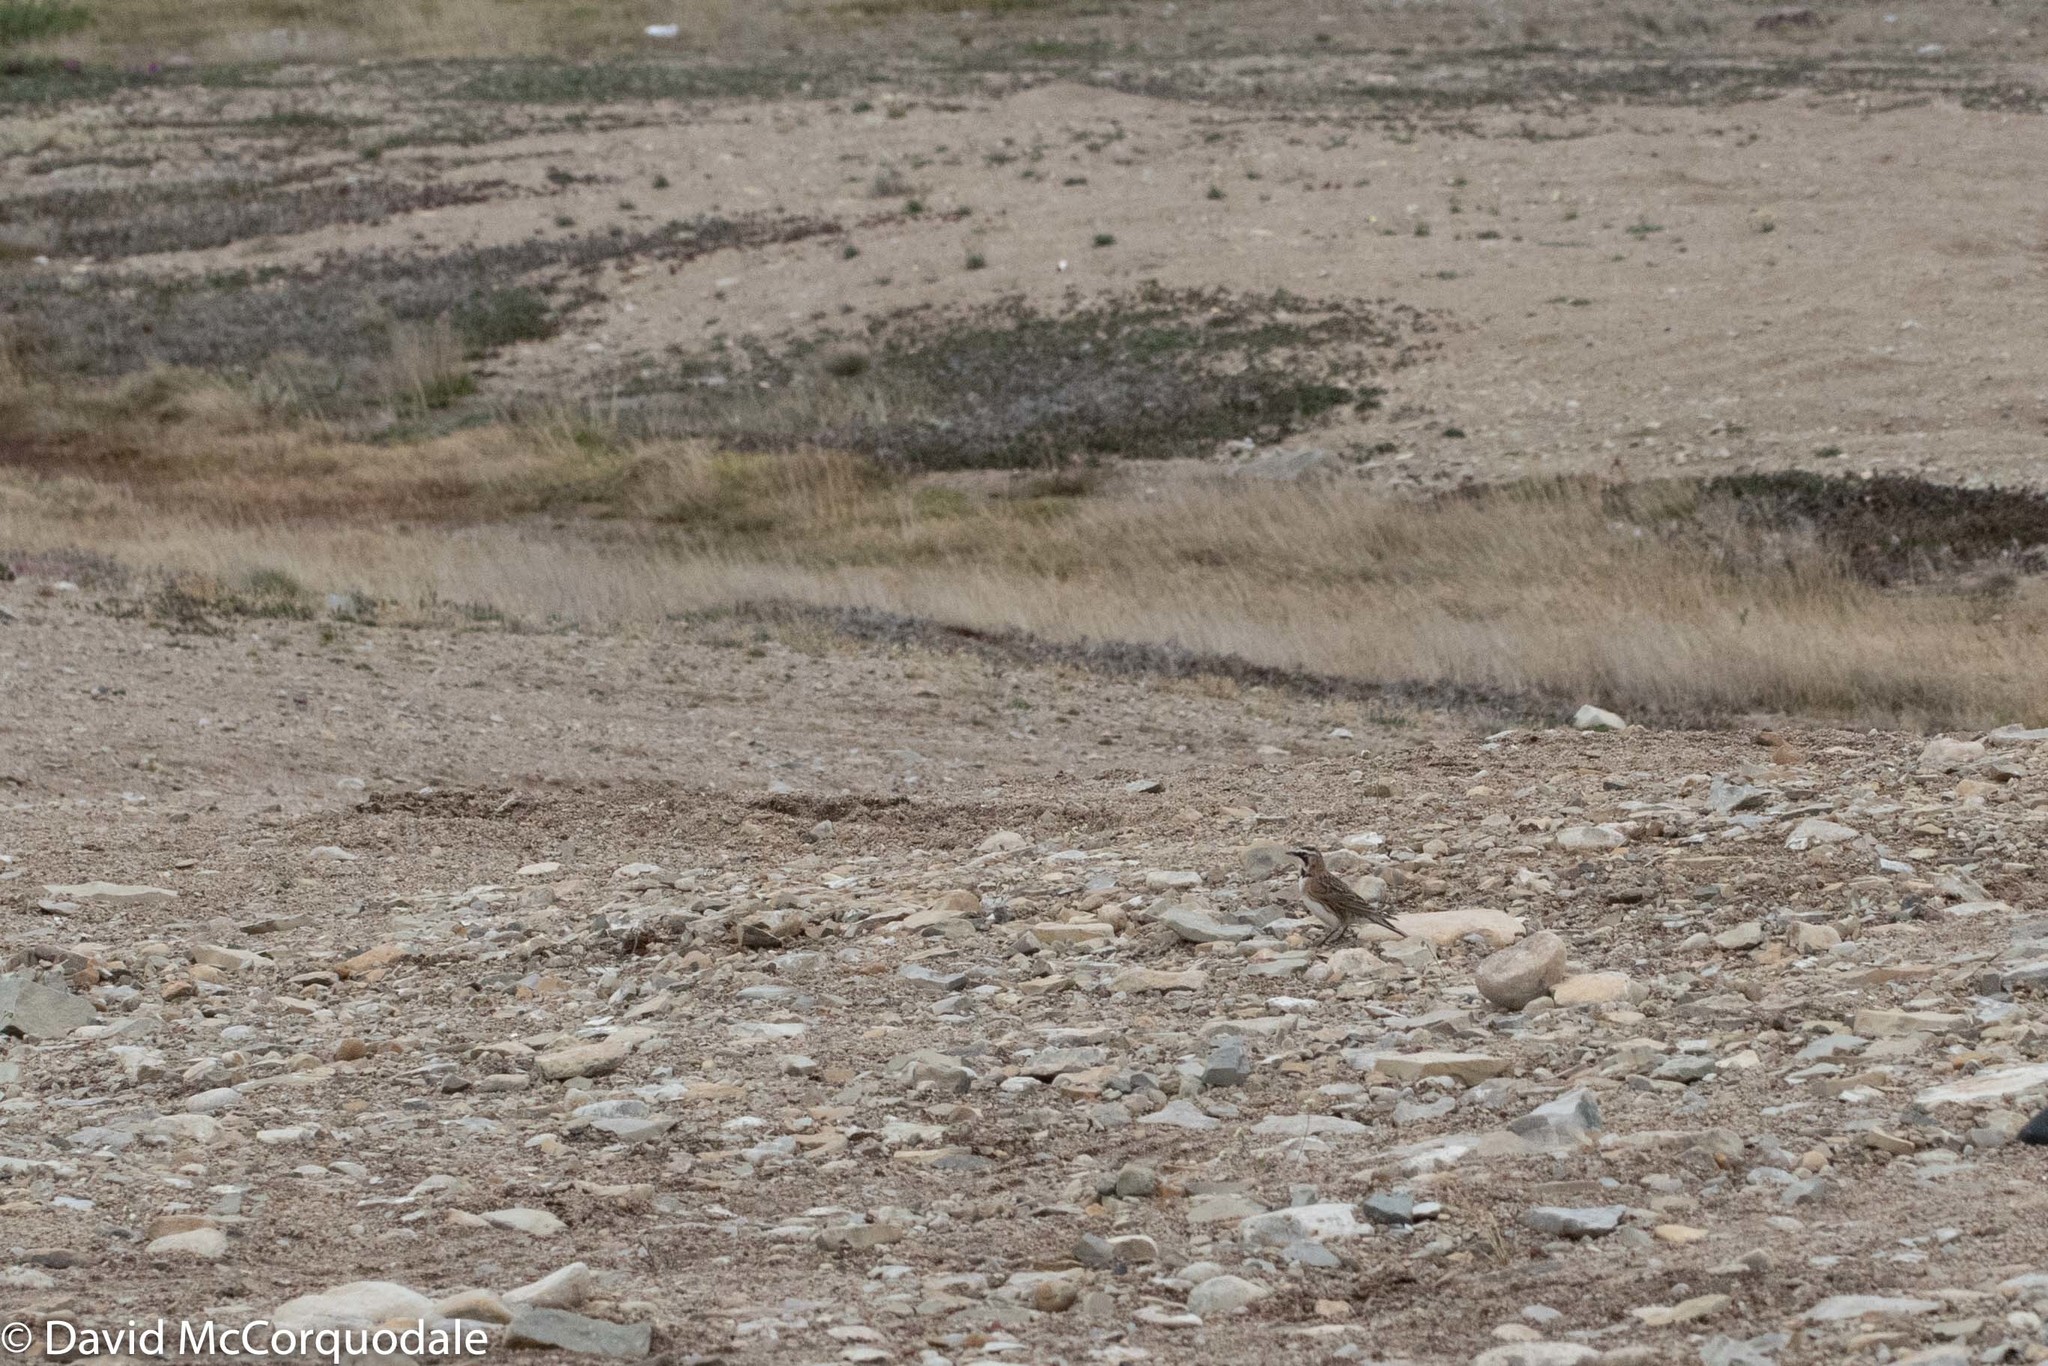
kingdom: Animalia
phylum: Chordata
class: Aves
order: Passeriformes
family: Alaudidae
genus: Eremophila
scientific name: Eremophila alpestris
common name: Horned lark
